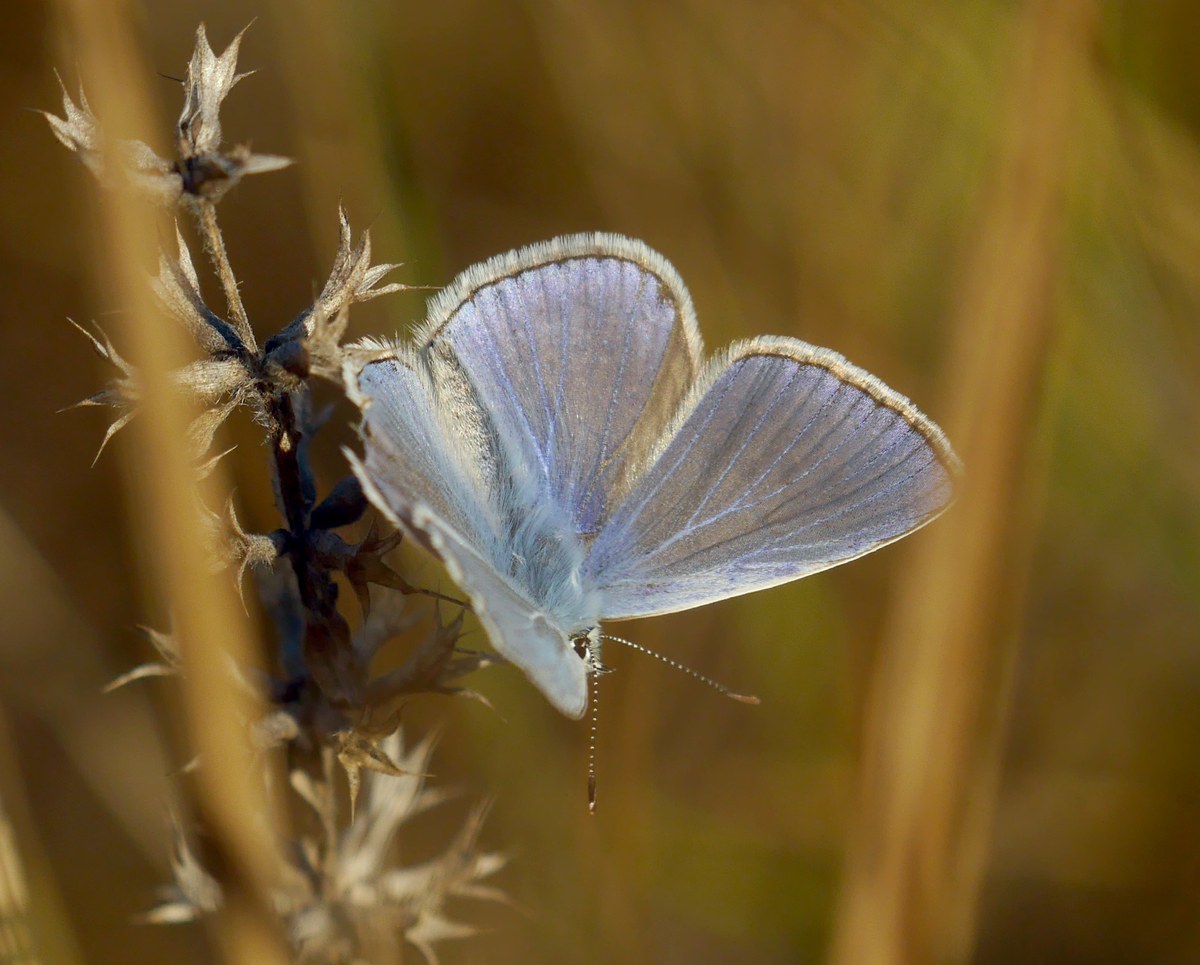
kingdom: Animalia
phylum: Arthropoda
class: Insecta
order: Lepidoptera
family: Lycaenidae
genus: Polyommatus
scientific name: Polyommatus icarus
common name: Common blue
